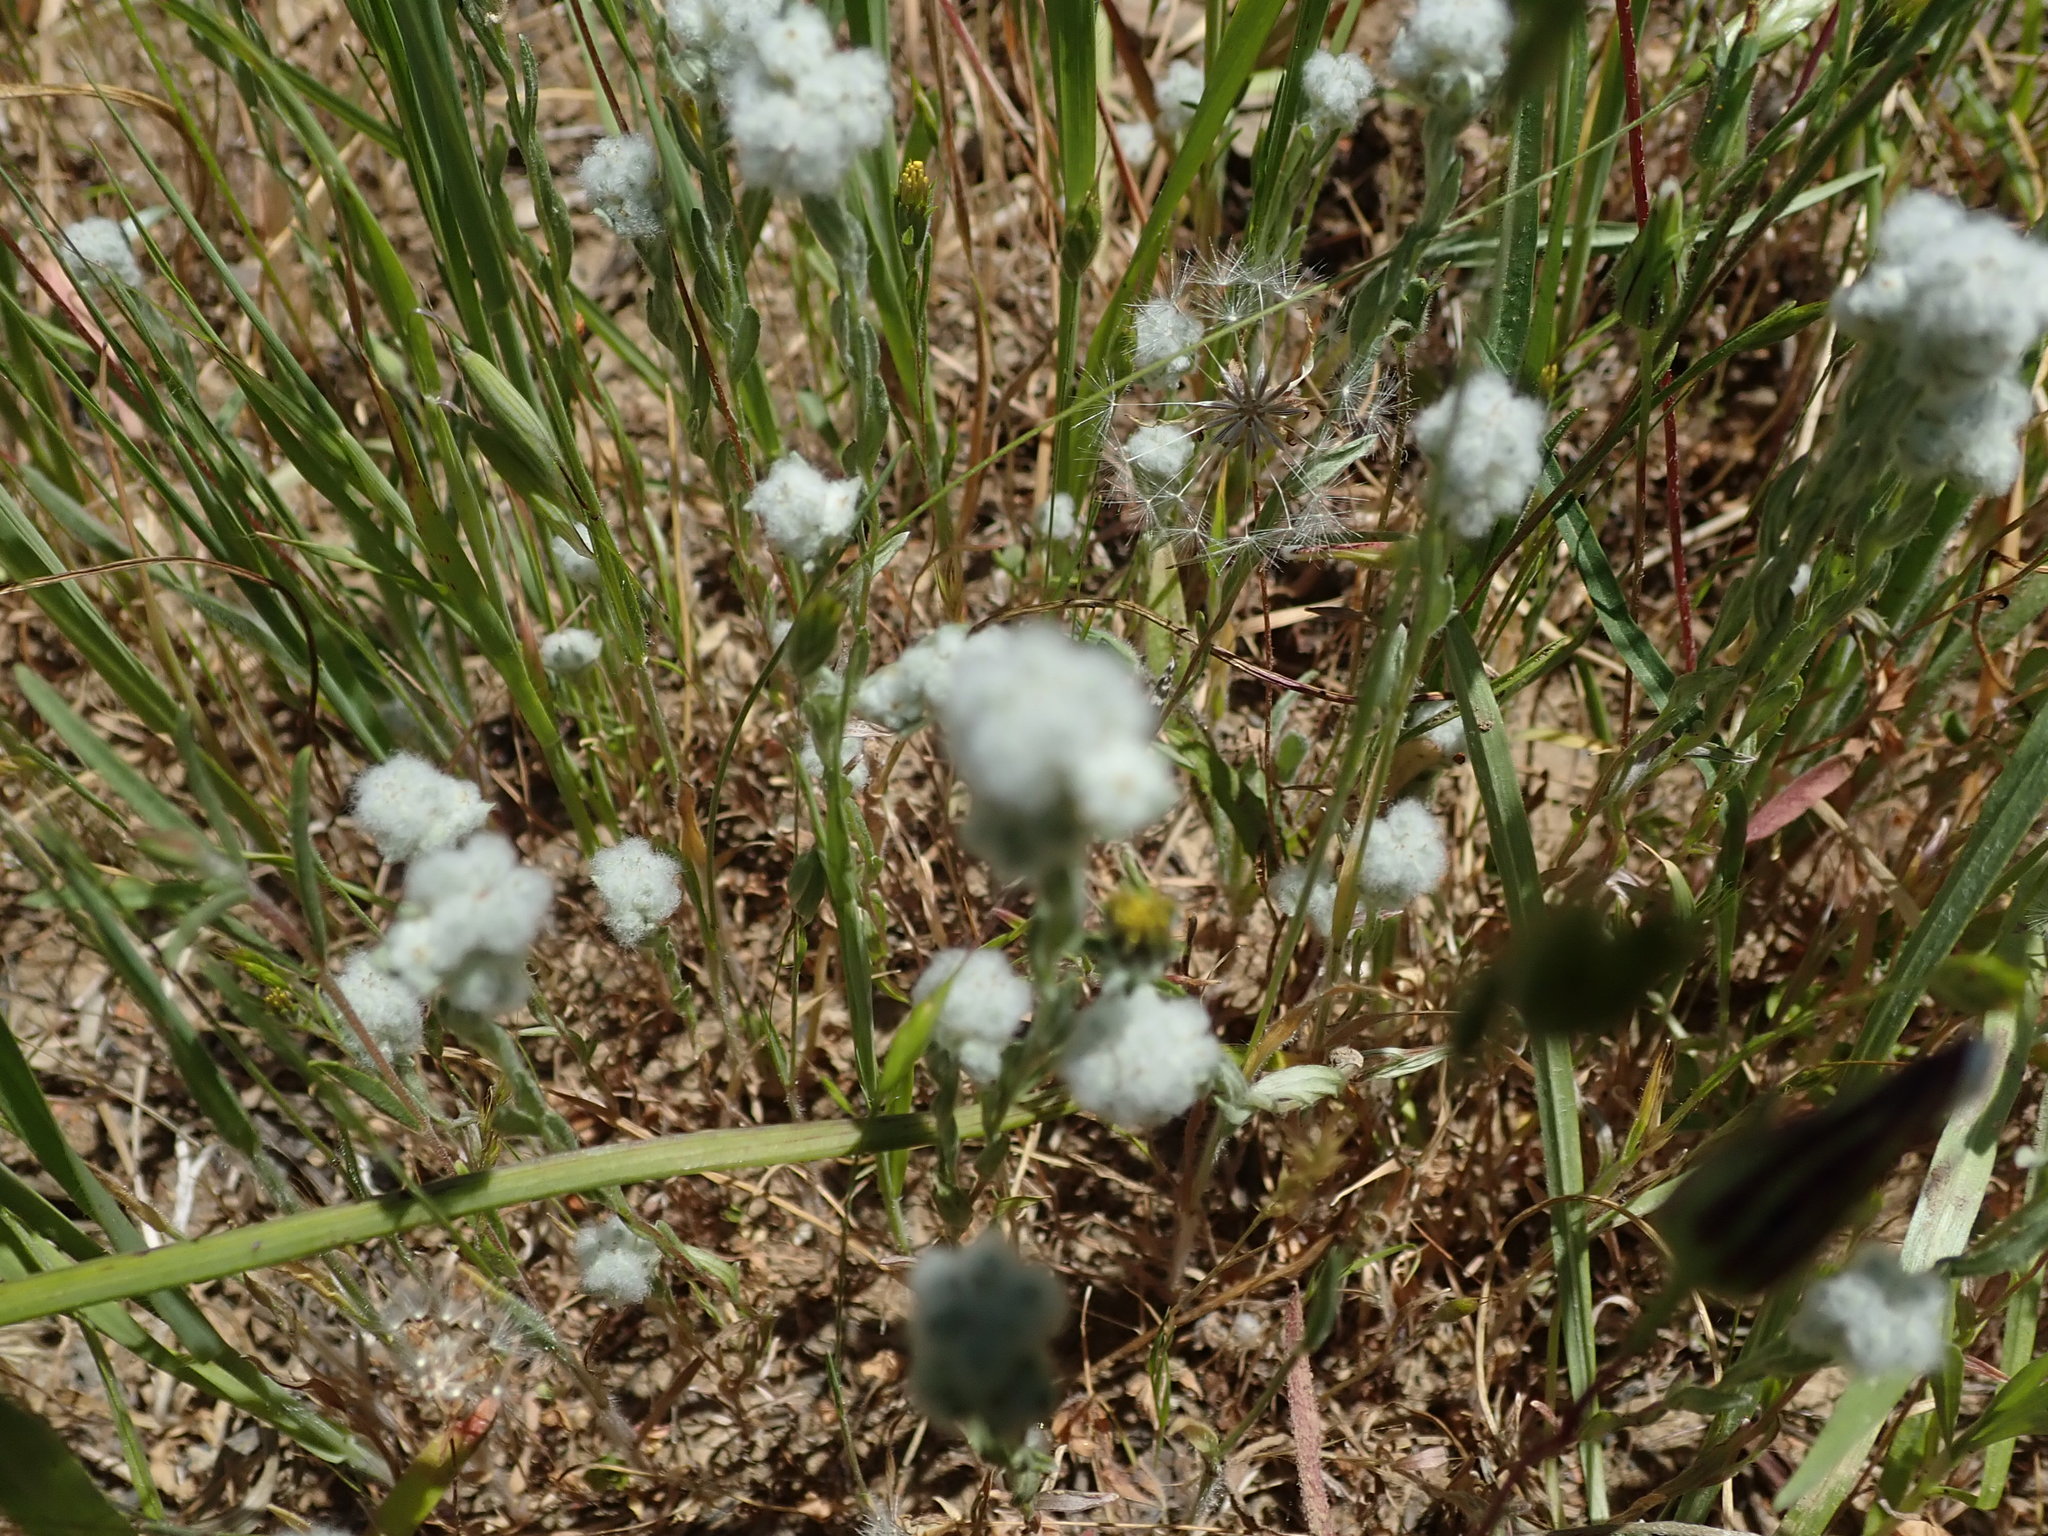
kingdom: Plantae
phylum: Tracheophyta
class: Magnoliopsida
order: Asterales
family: Asteraceae
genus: Bombycilaena
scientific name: Bombycilaena californica
